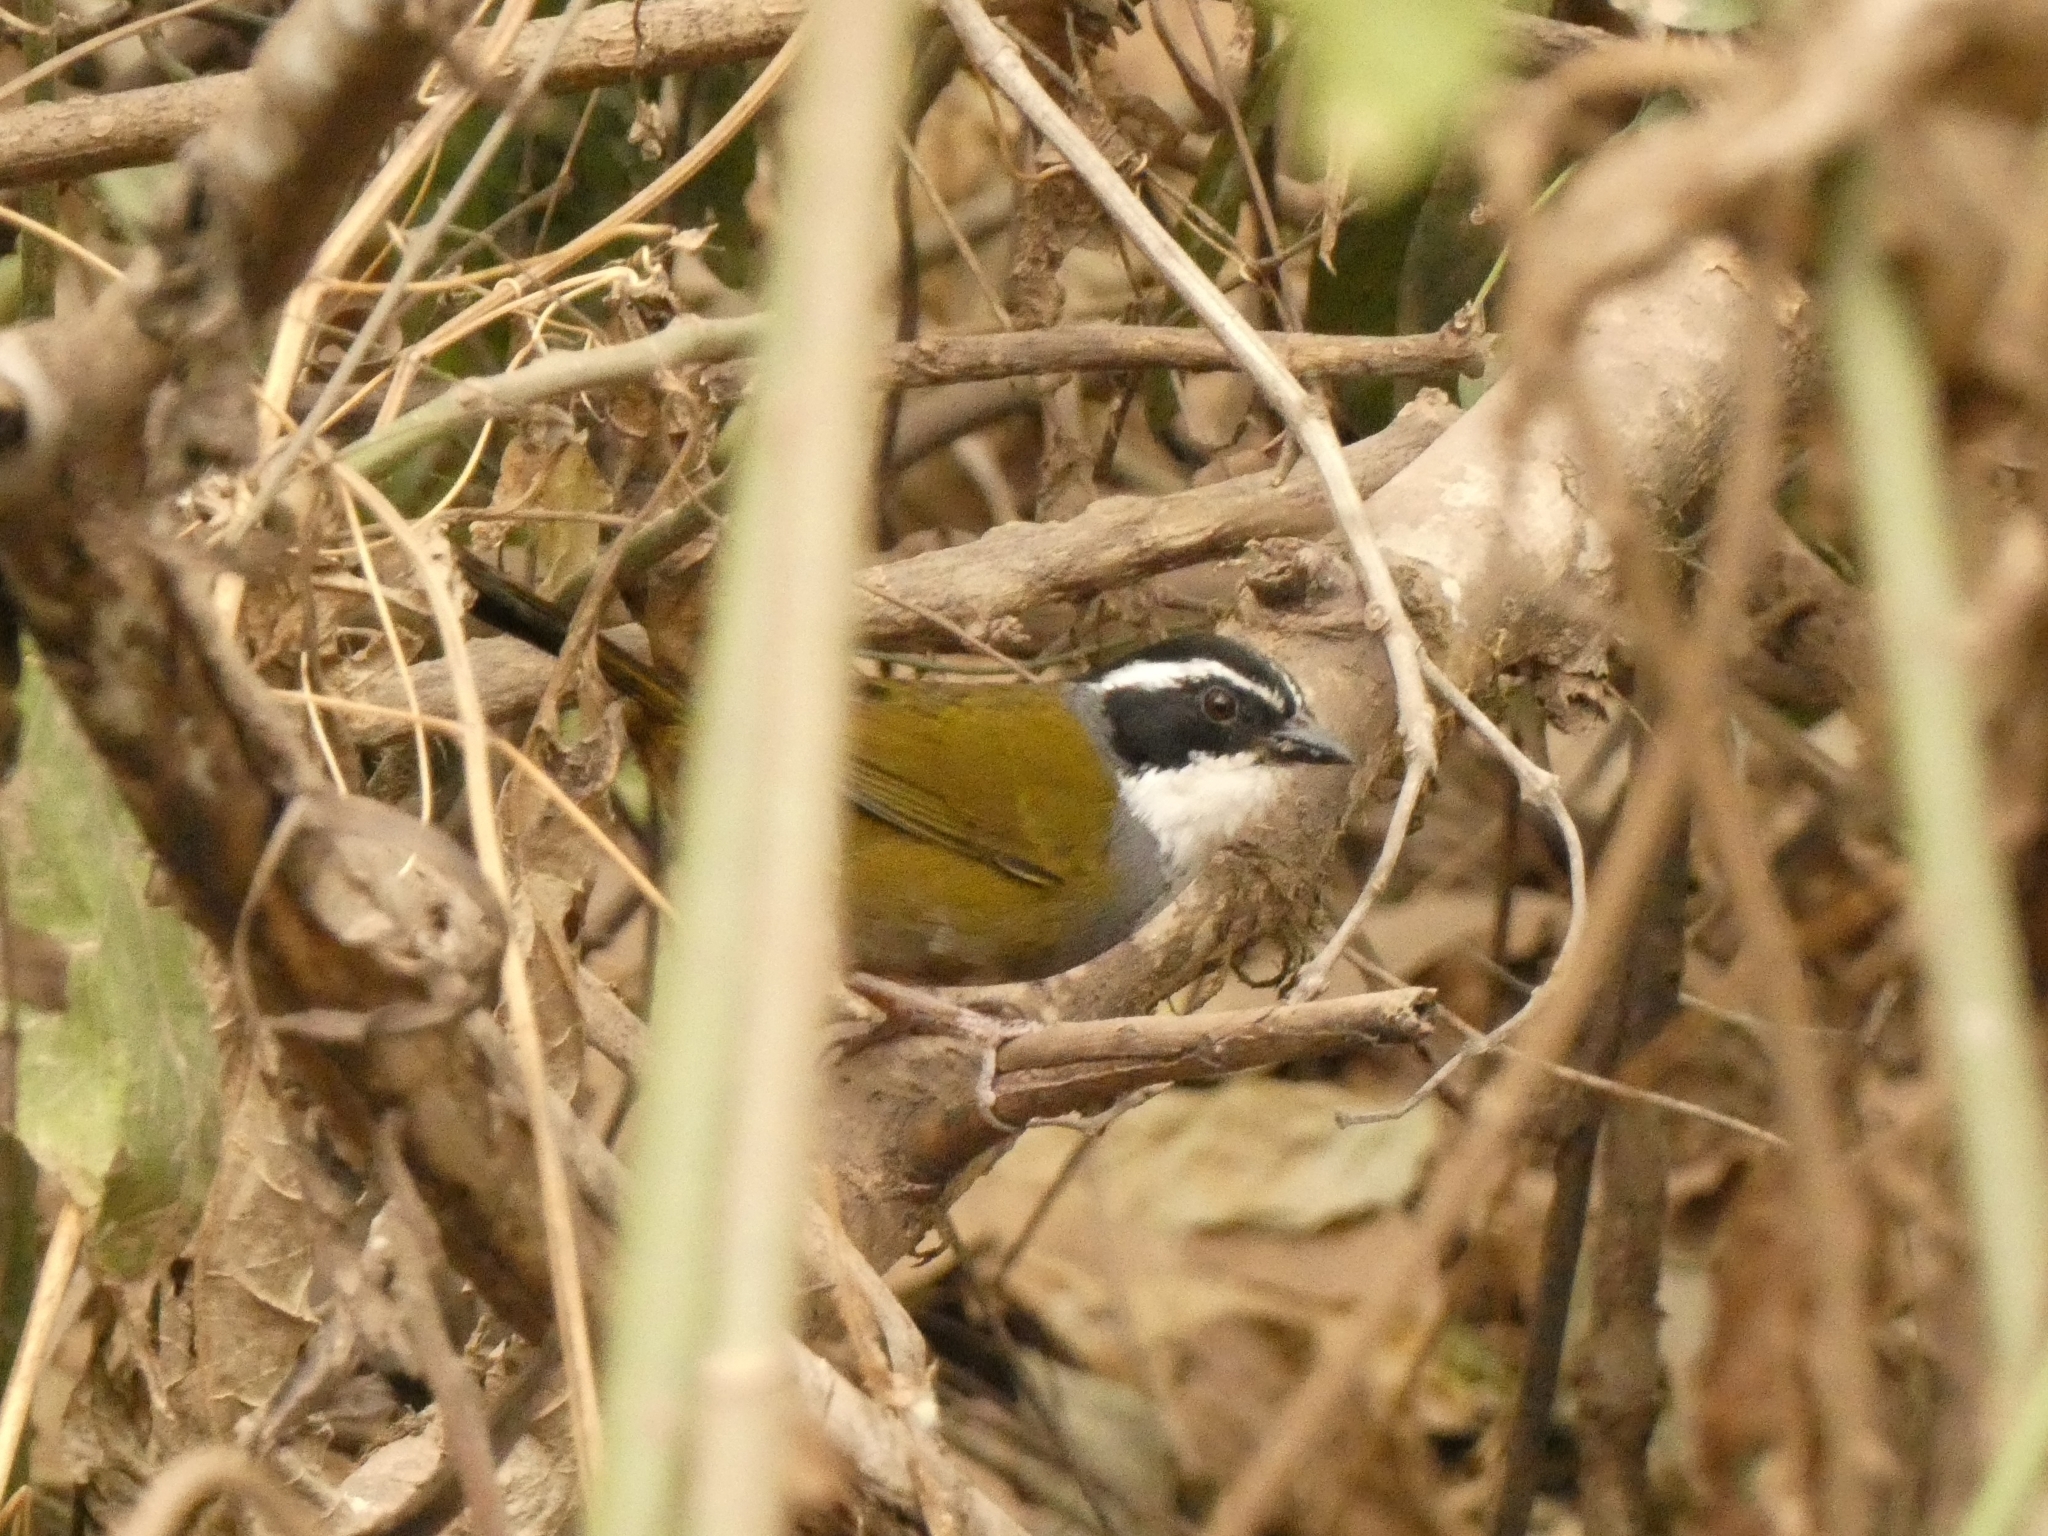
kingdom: Animalia
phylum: Chordata
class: Aves
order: Passeriformes
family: Passerellidae
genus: Arremon
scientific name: Arremon torquatus
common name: White-browed brushfinch
